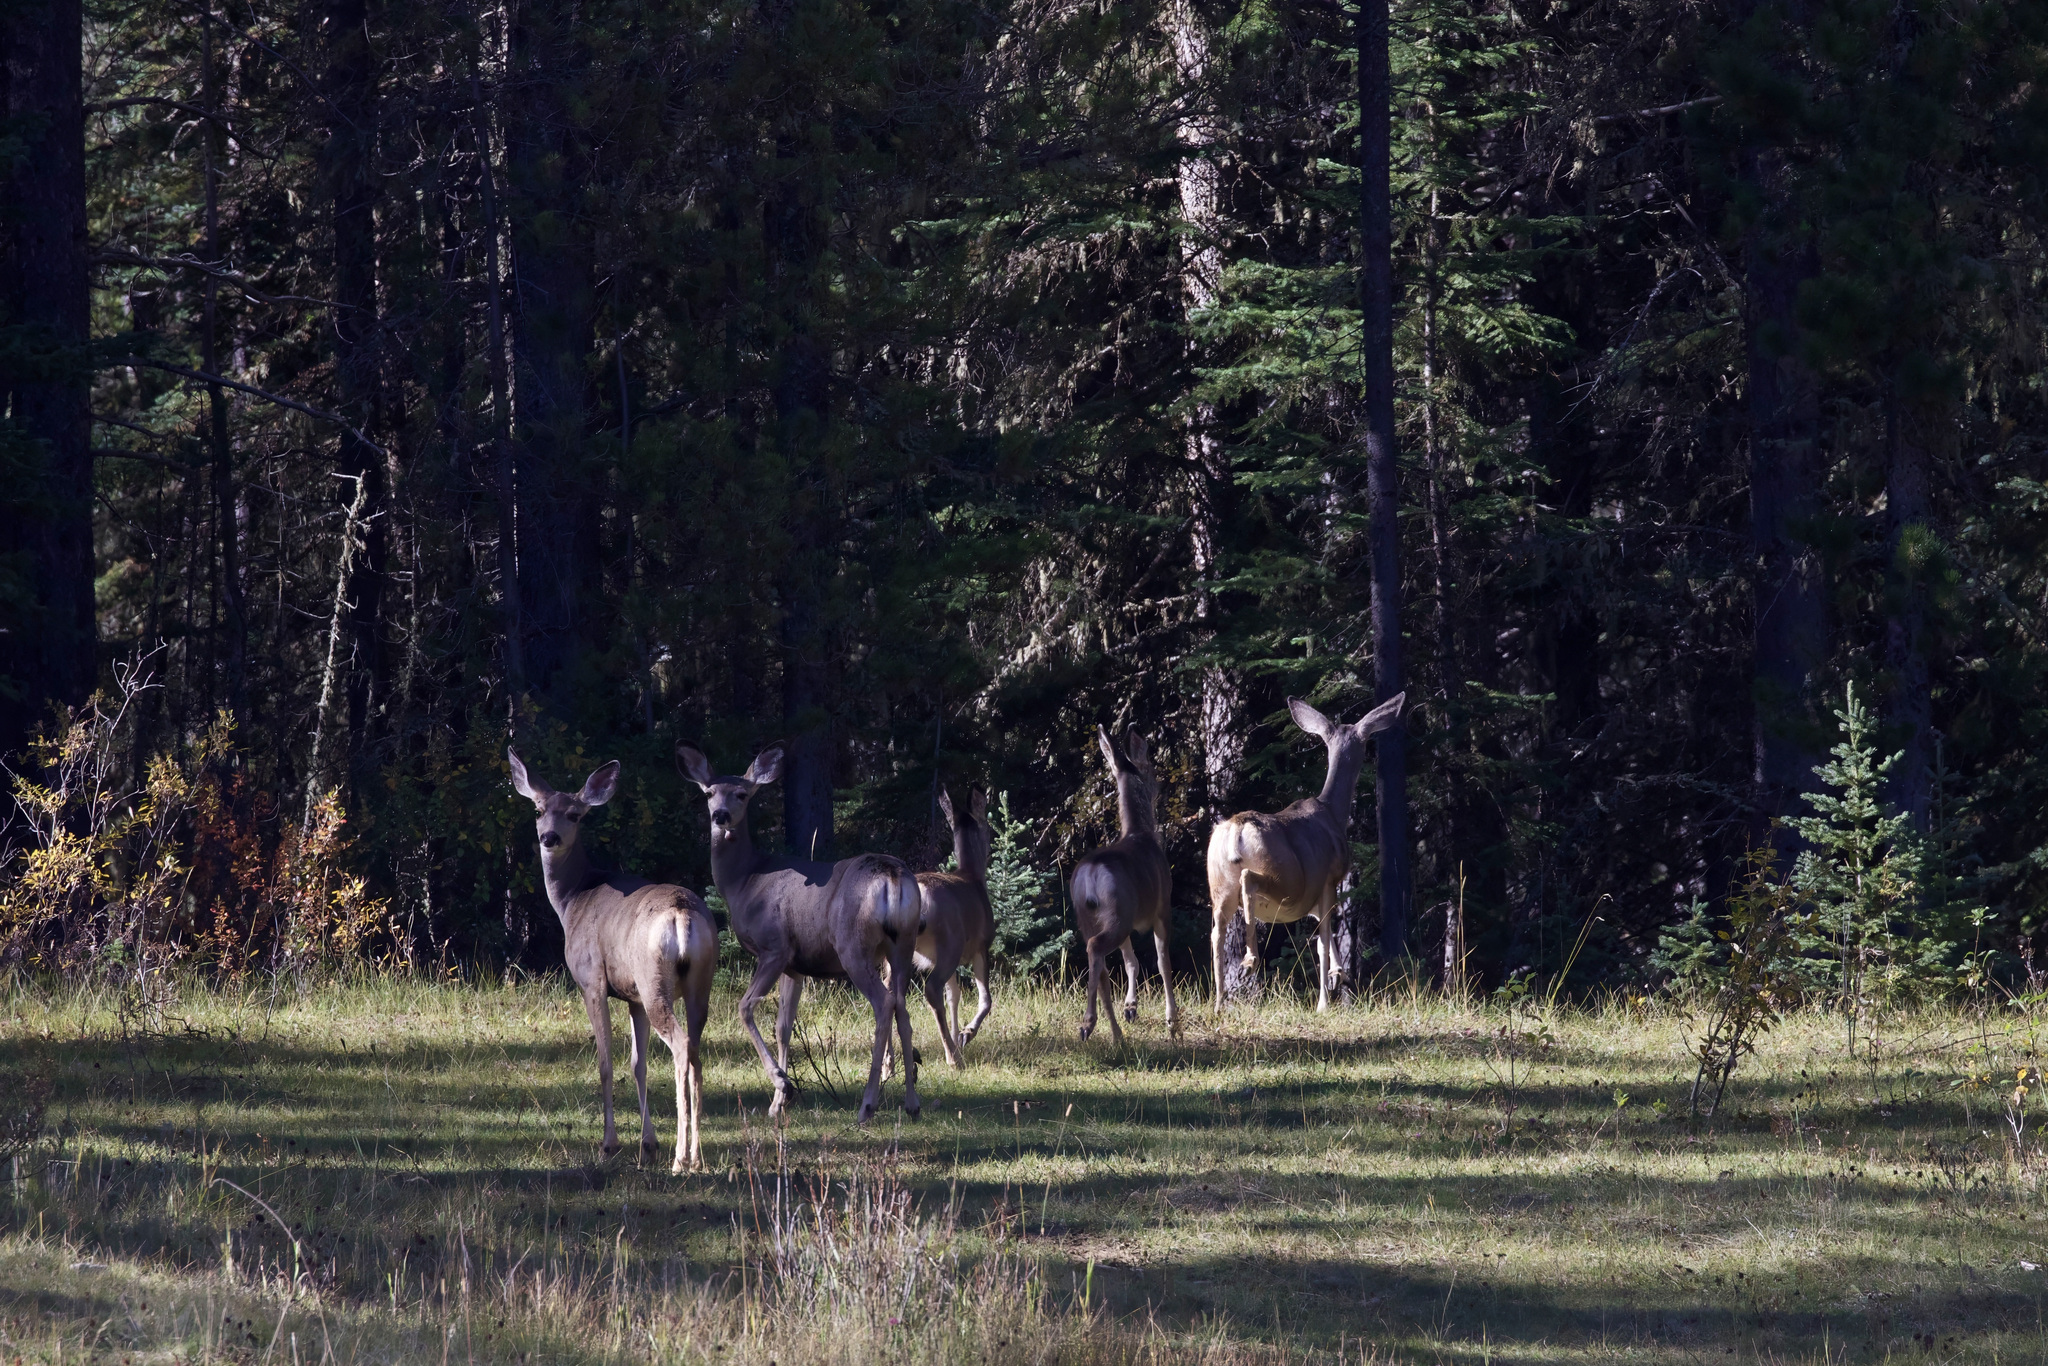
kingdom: Animalia
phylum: Chordata
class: Mammalia
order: Artiodactyla
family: Cervidae
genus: Odocoileus
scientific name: Odocoileus hemionus
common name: Mule deer
